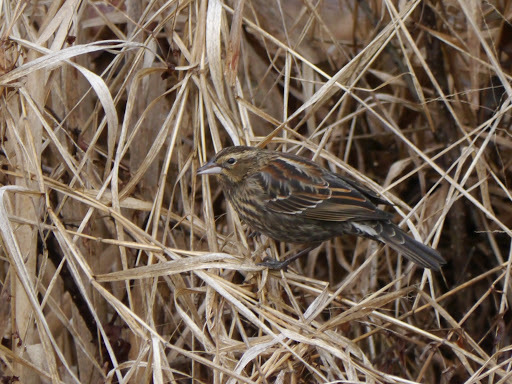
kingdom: Animalia
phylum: Chordata
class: Aves
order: Passeriformes
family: Icteridae
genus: Agelaius
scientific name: Agelaius phoeniceus
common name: Red-winged blackbird
